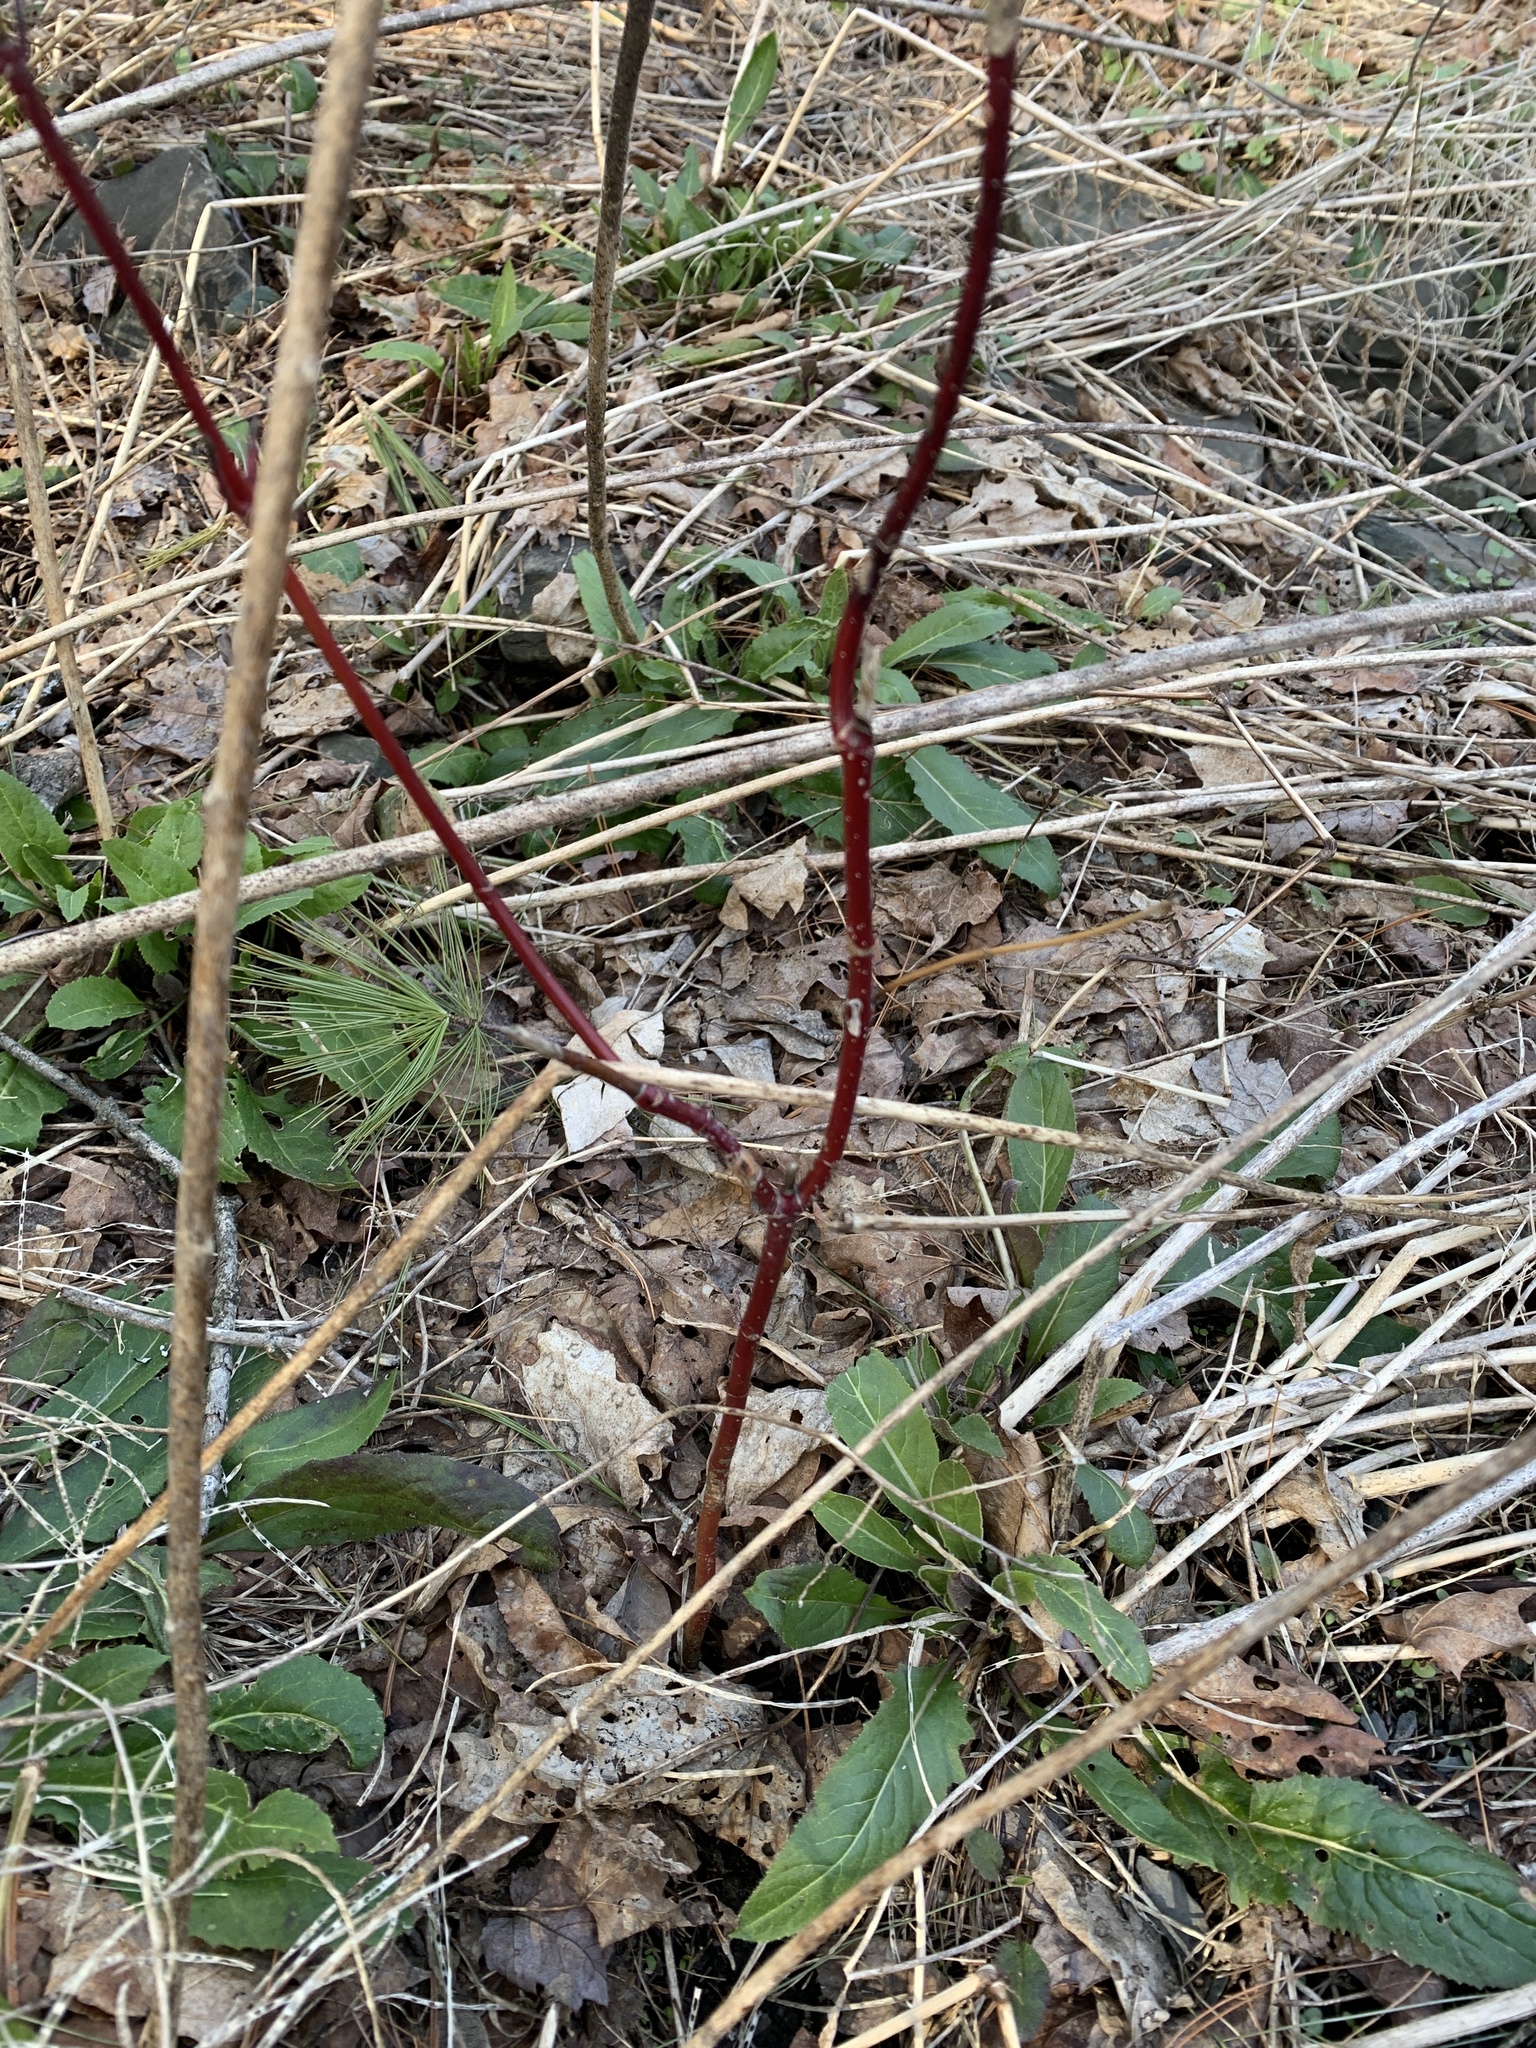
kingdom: Plantae
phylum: Tracheophyta
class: Magnoliopsida
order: Cornales
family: Cornaceae
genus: Cornus
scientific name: Cornus sericea
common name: Red-osier dogwood
